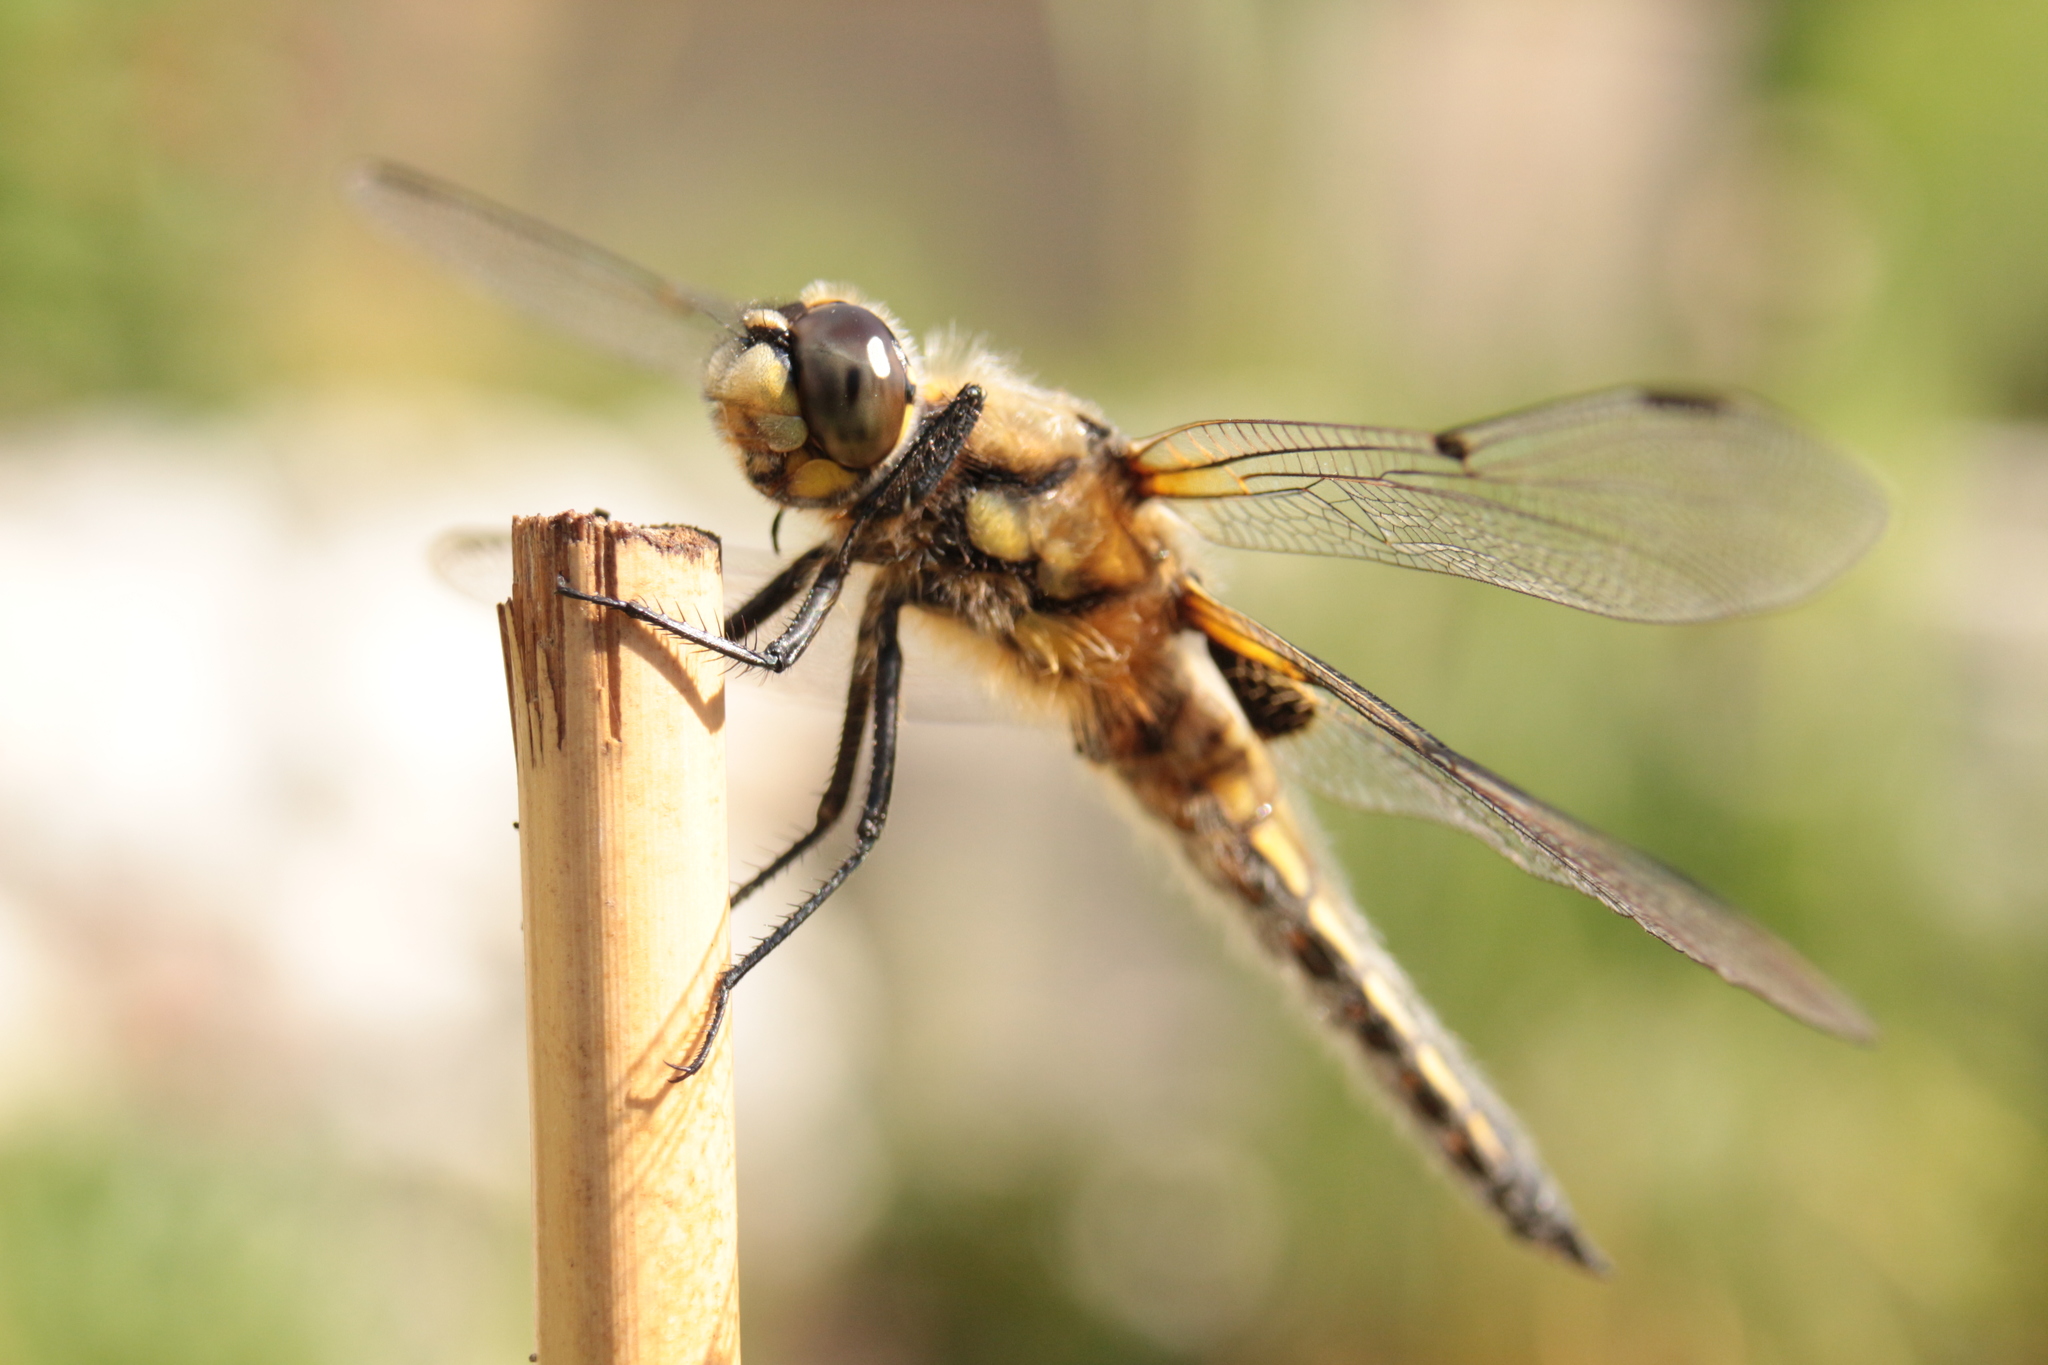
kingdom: Animalia
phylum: Arthropoda
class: Insecta
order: Odonata
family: Libellulidae
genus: Libellula
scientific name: Libellula quadrimaculata
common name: Four-spotted chaser
